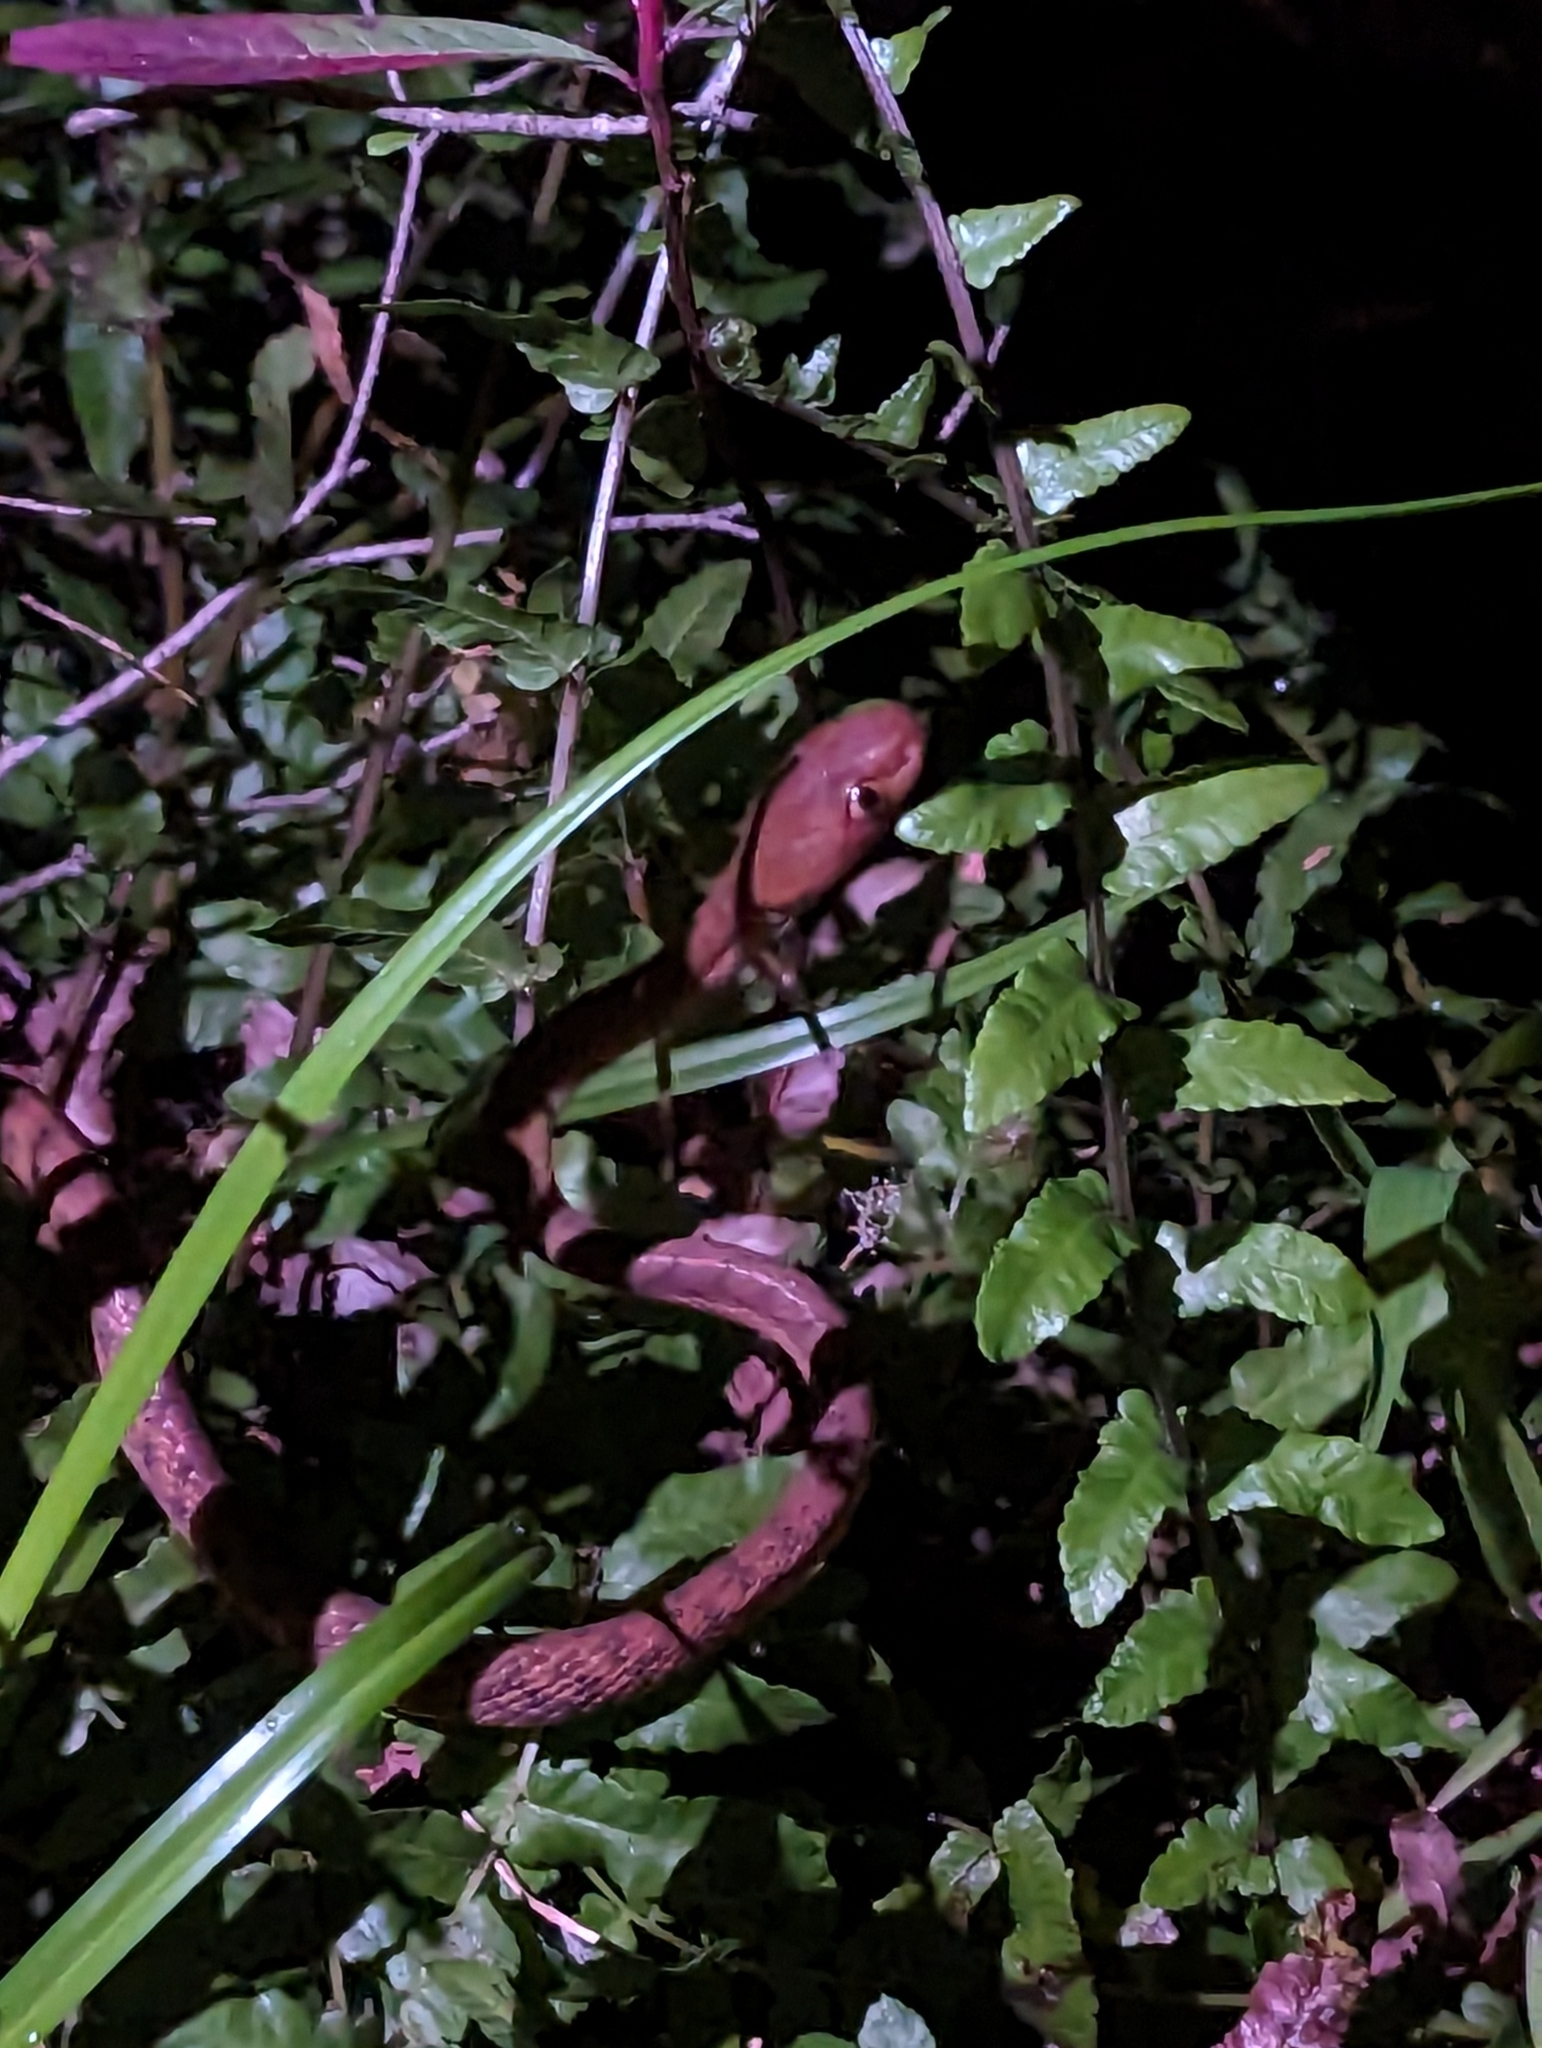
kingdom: Animalia
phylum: Chordata
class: Squamata
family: Colubridae
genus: Boiga
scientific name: Boiga irregularis
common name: Brown tree snake
